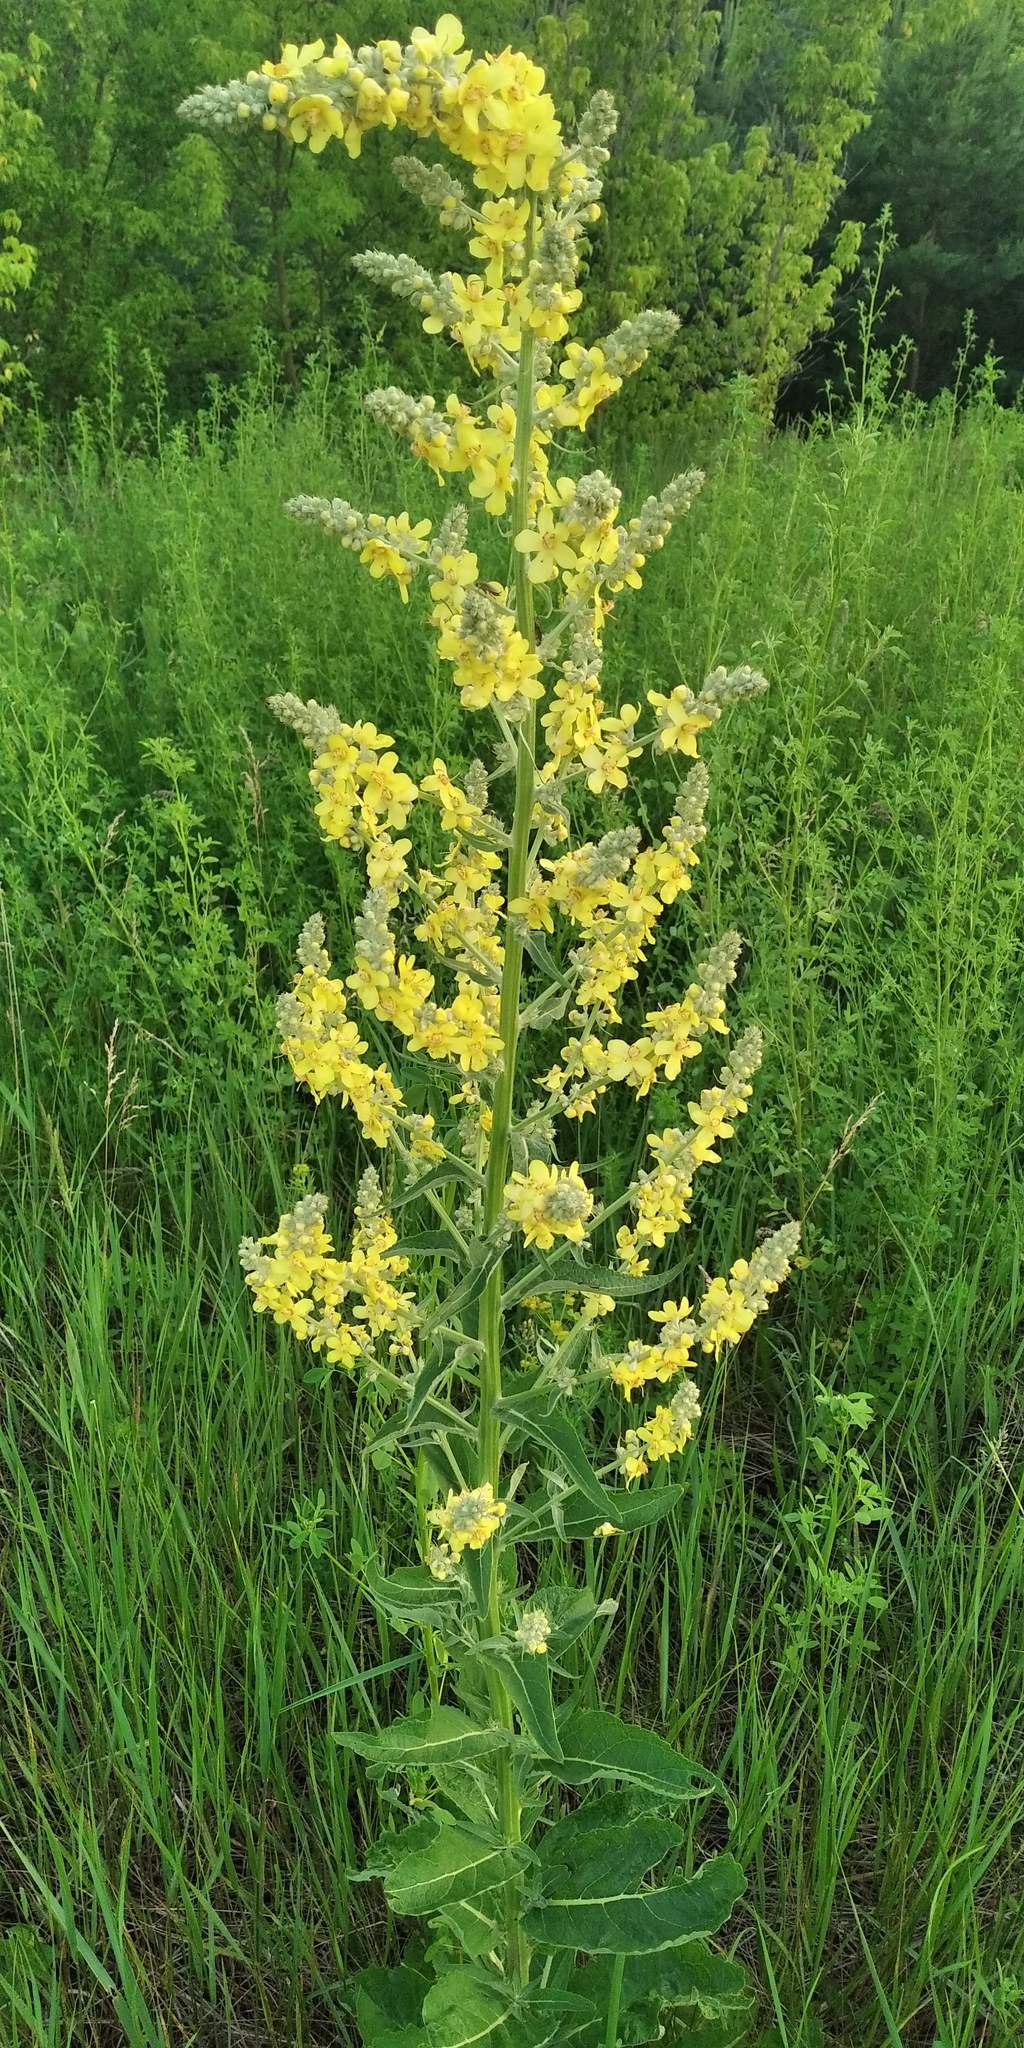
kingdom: Plantae
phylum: Tracheophyta
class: Magnoliopsida
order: Lamiales
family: Scrophulariaceae
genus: Verbascum
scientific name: Verbascum lychnitis
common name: White mullein
